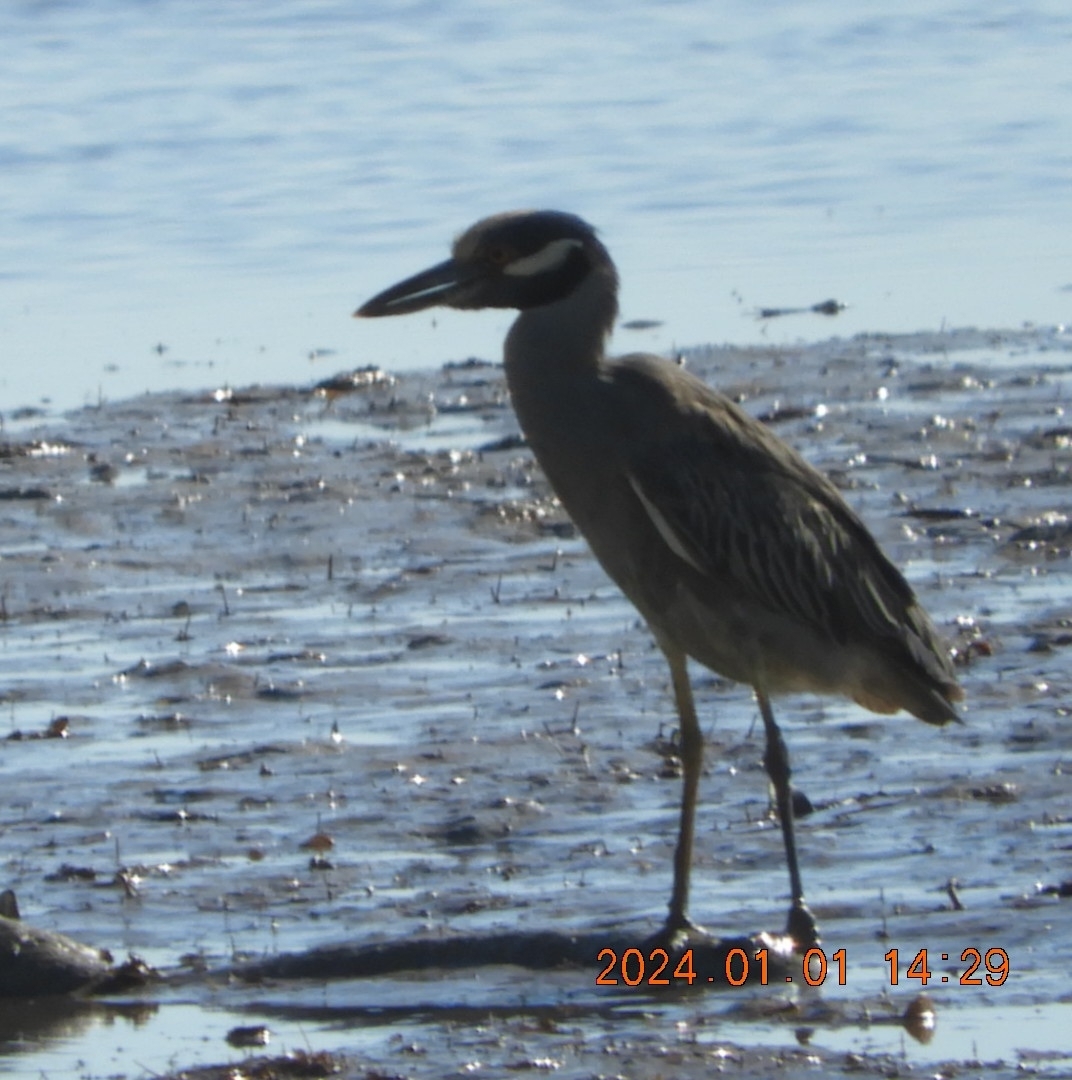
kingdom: Animalia
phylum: Chordata
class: Aves
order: Pelecaniformes
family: Ardeidae
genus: Nyctanassa
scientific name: Nyctanassa violacea
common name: Yellow-crowned night heron
